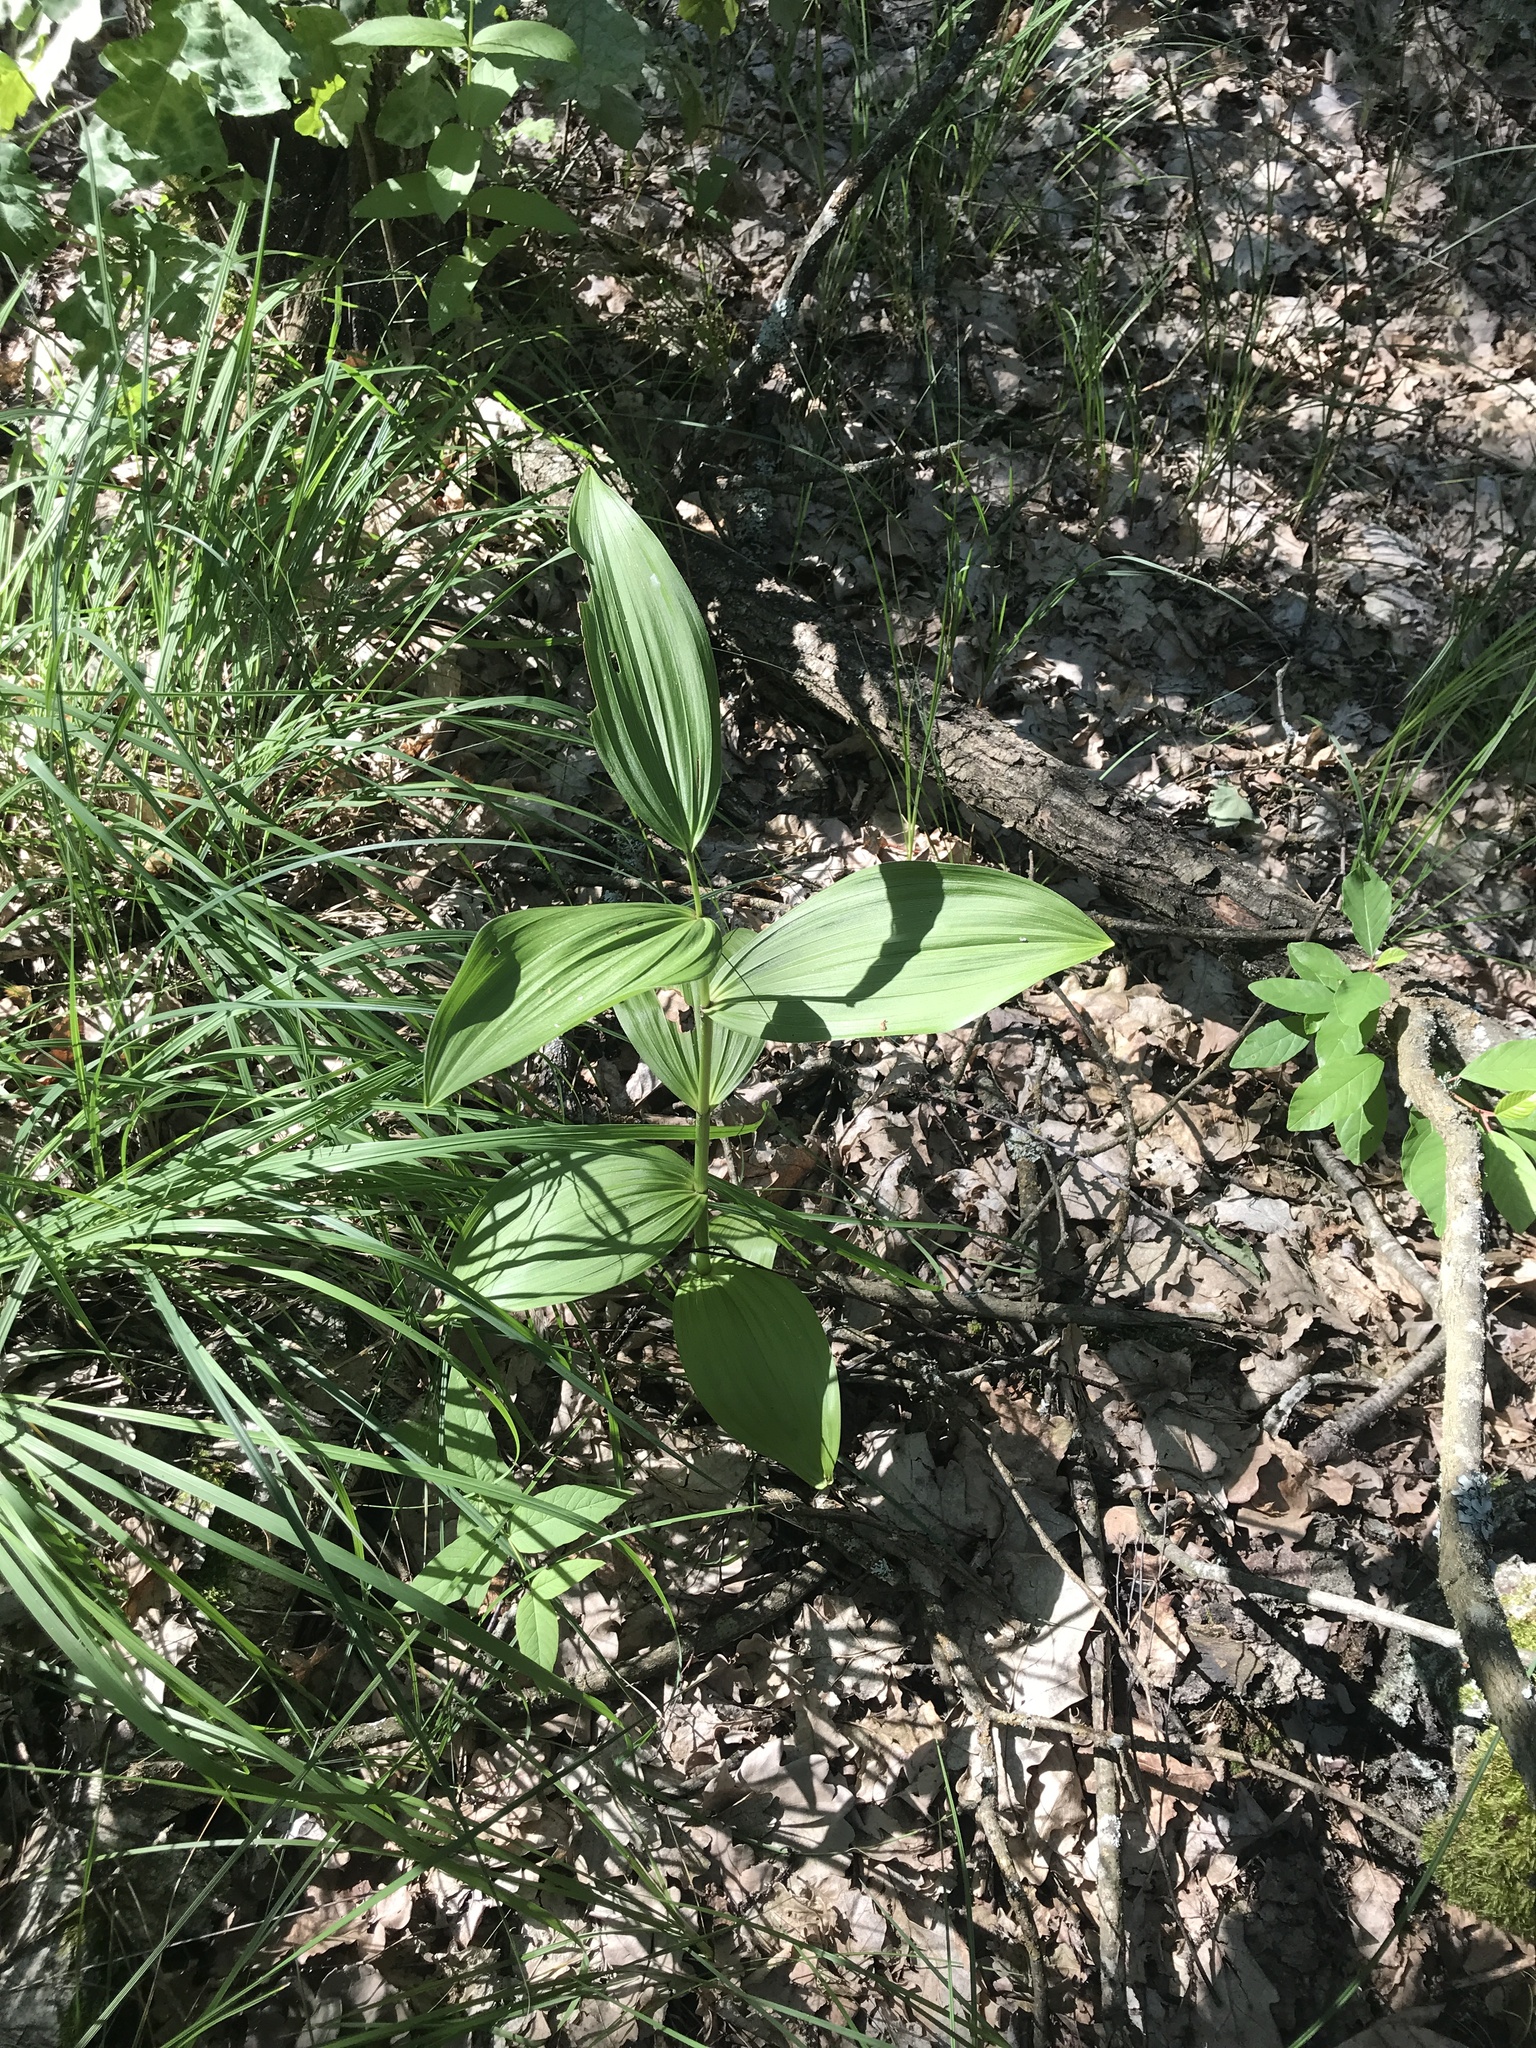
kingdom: Plantae
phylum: Tracheophyta
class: Liliopsida
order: Liliales
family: Melanthiaceae
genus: Veratrum
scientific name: Veratrum lobelianum
